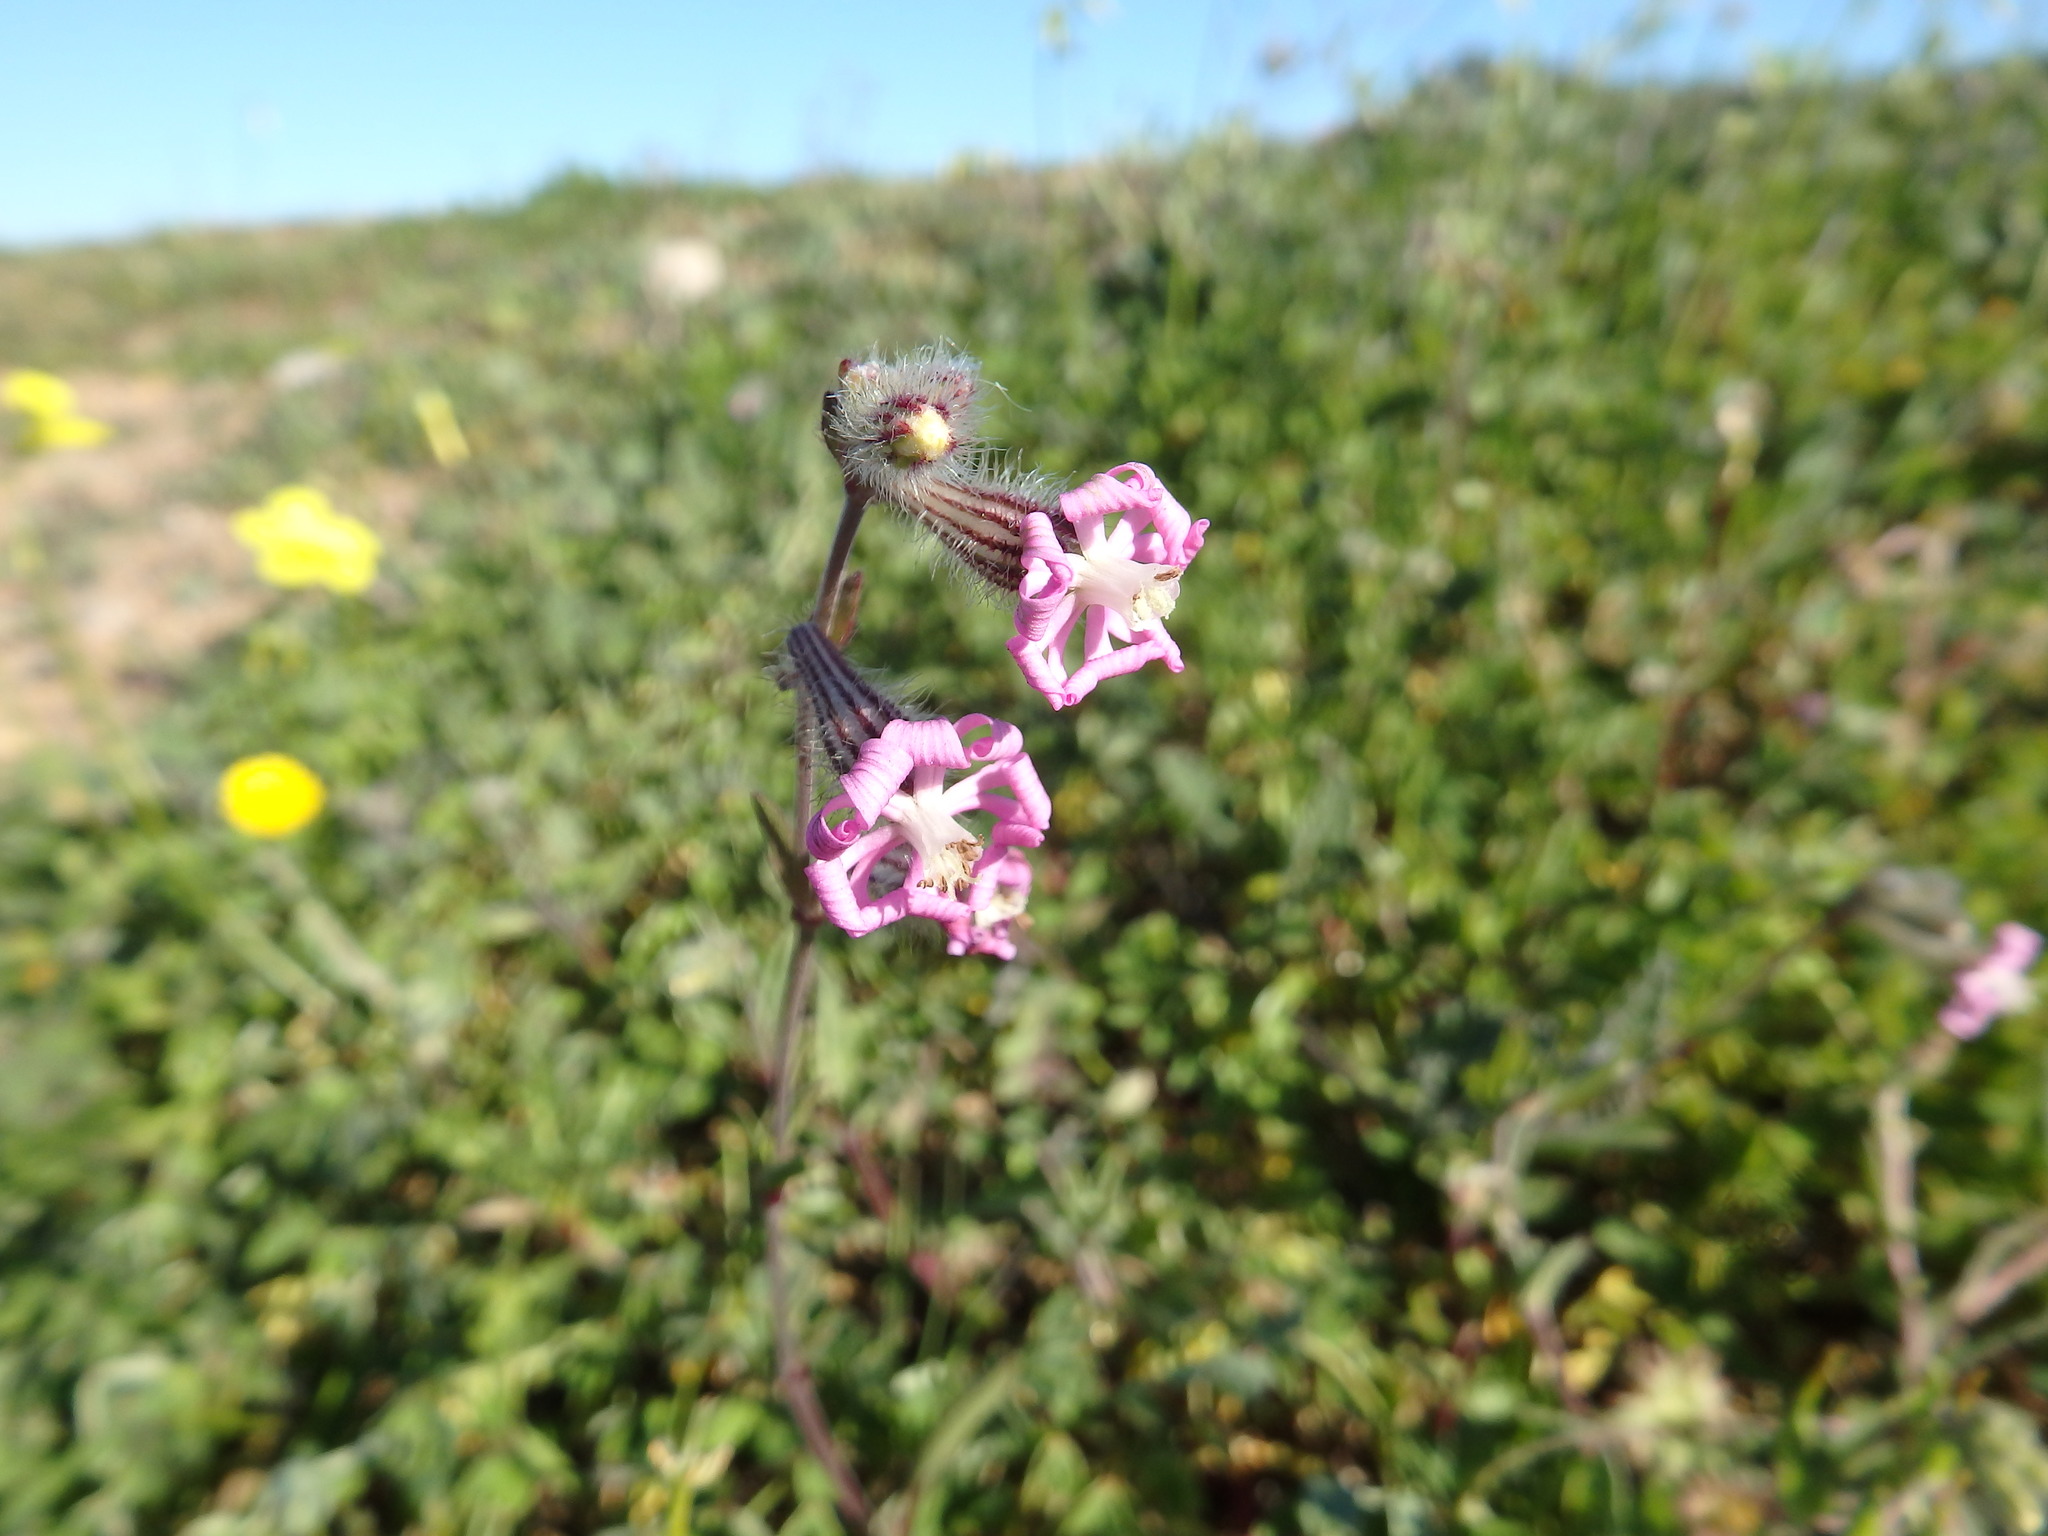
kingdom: Plantae
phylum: Tracheophyta
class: Magnoliopsida
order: Caryophyllales
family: Caryophyllaceae
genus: Silene
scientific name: Silene colorata
